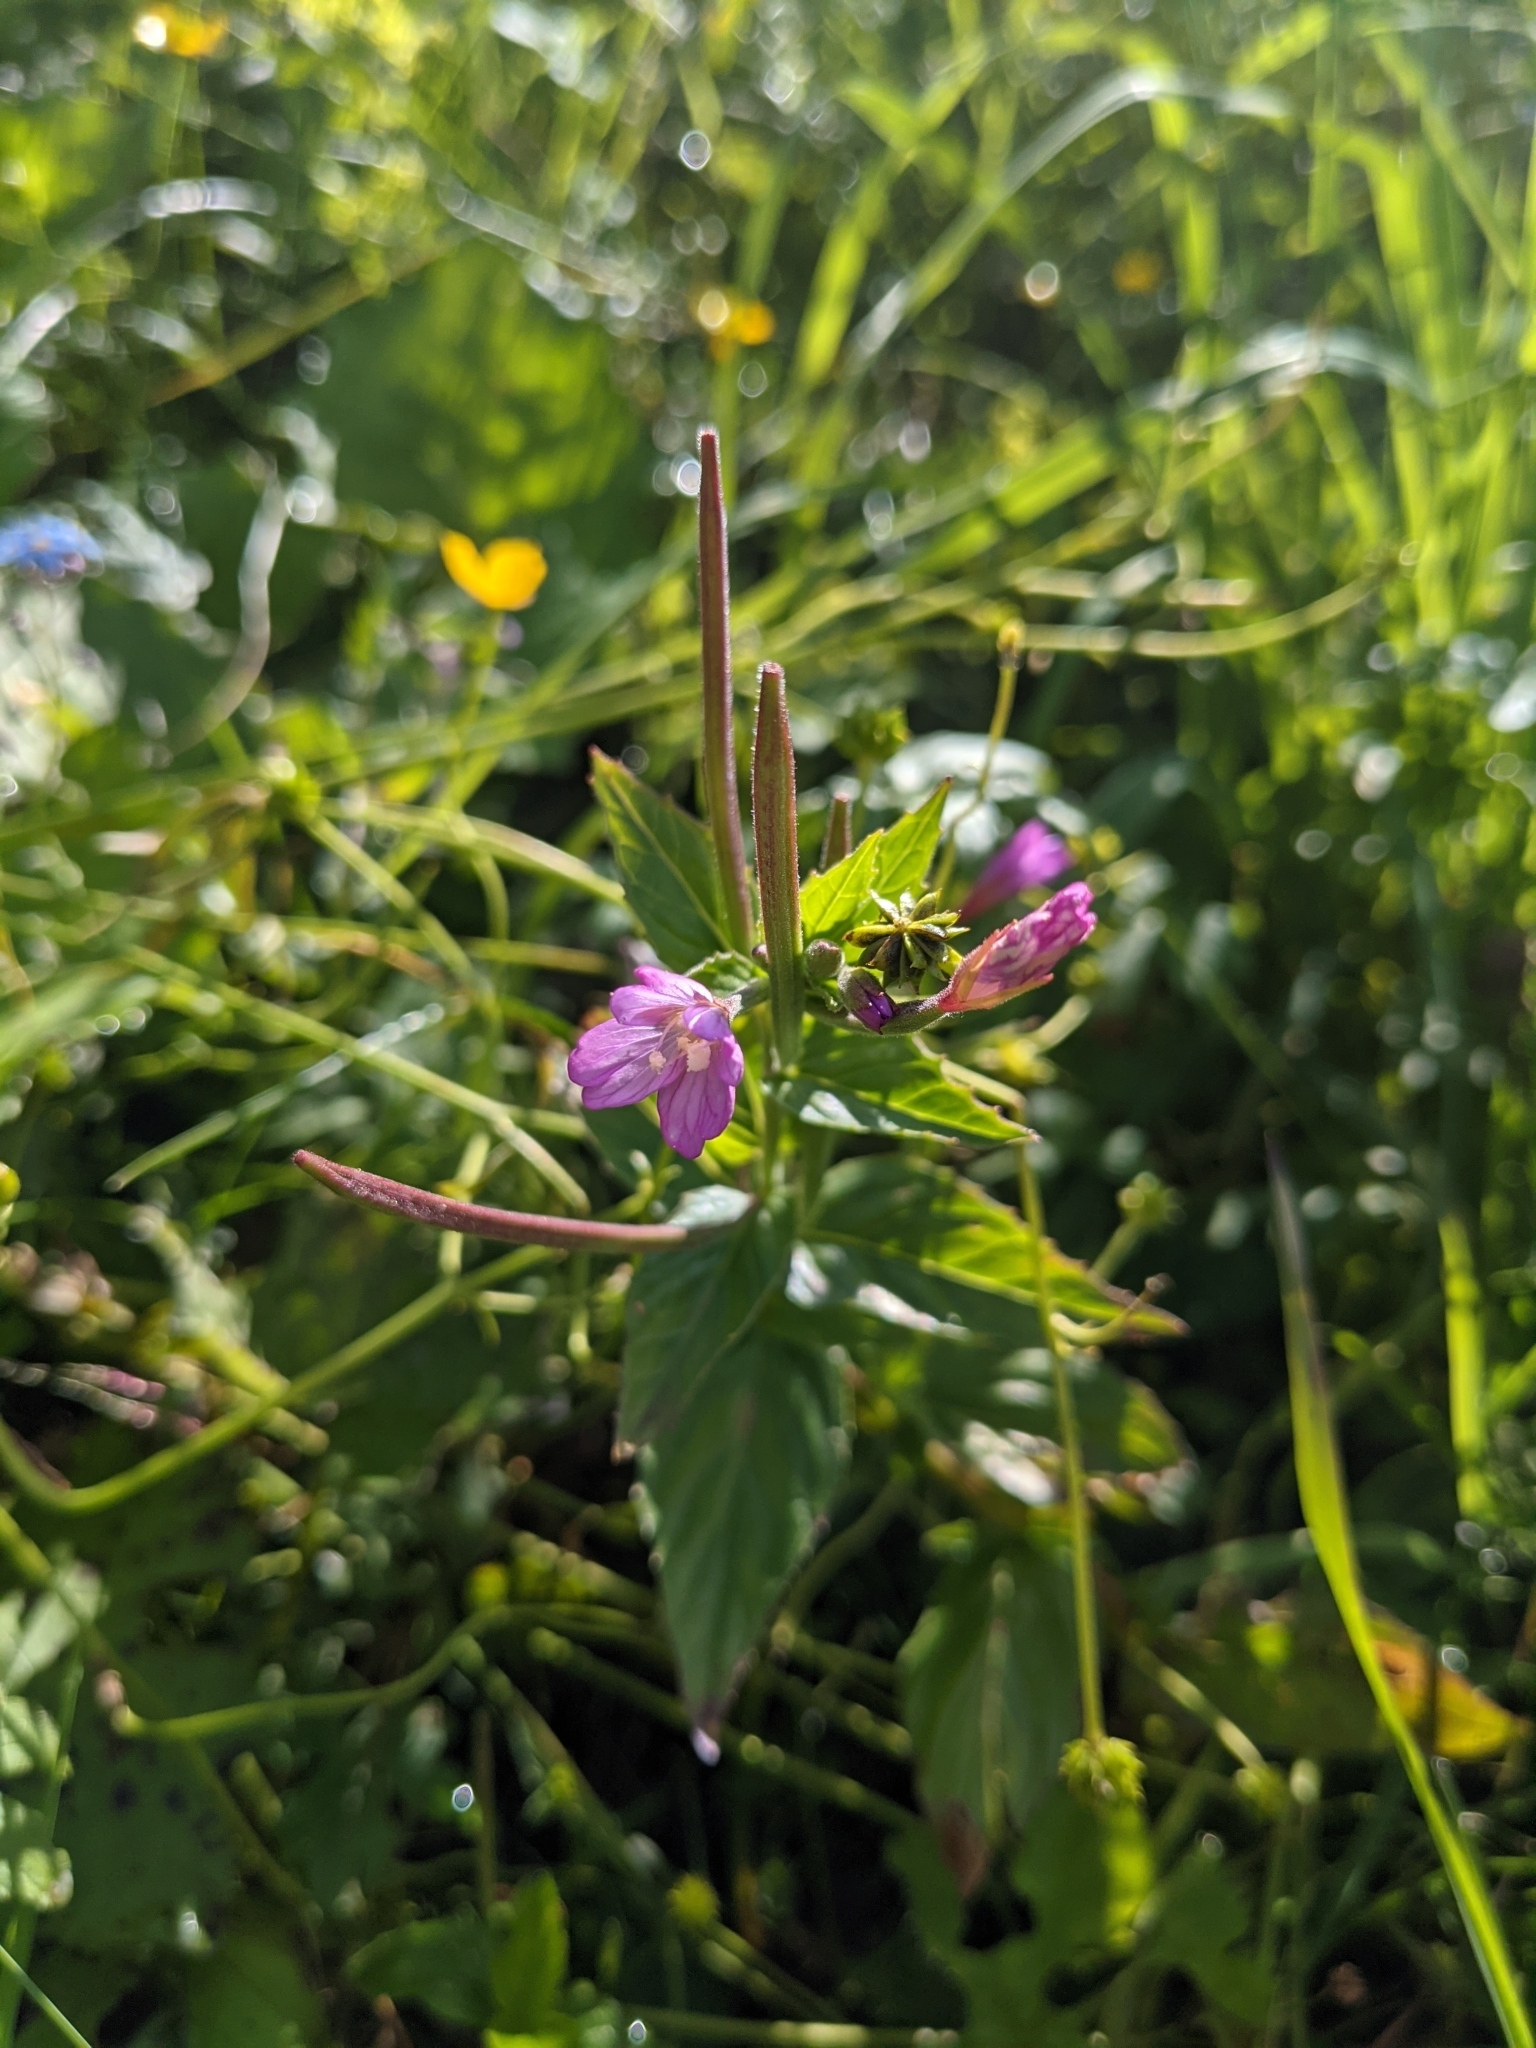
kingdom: Plantae
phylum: Tracheophyta
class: Magnoliopsida
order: Myrtales
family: Onagraceae
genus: Epilobium
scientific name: Epilobium hirsutum
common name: Great willowherb
